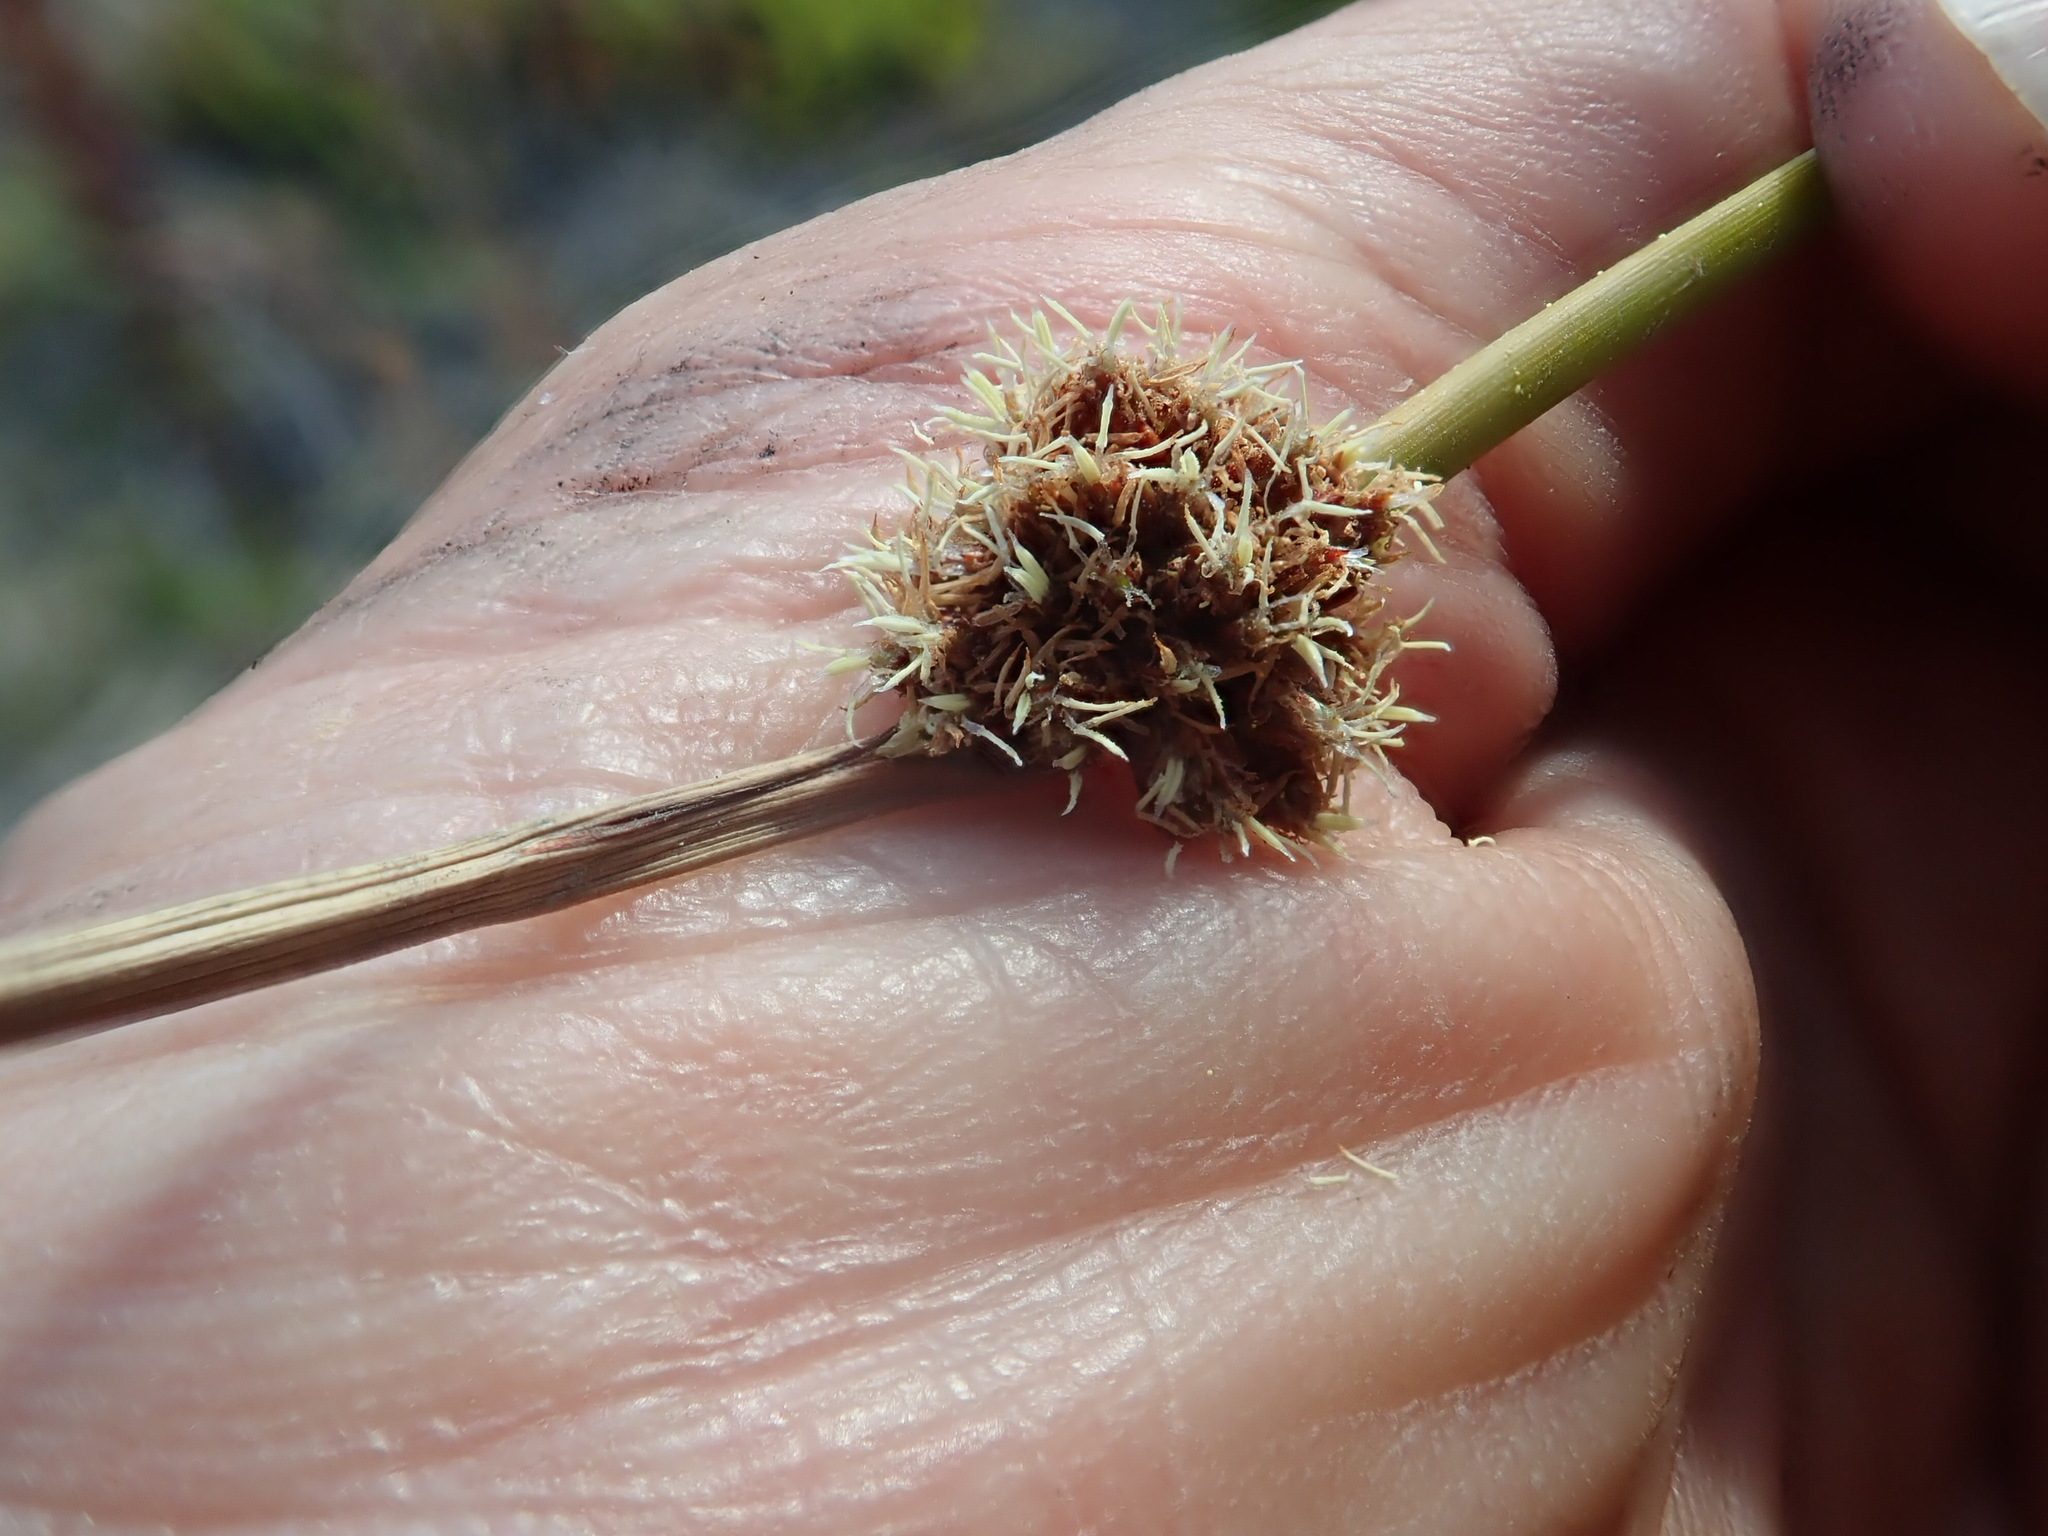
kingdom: Plantae
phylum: Tracheophyta
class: Liliopsida
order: Poales
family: Cyperaceae
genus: Ficinia
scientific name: Ficinia nodosa
